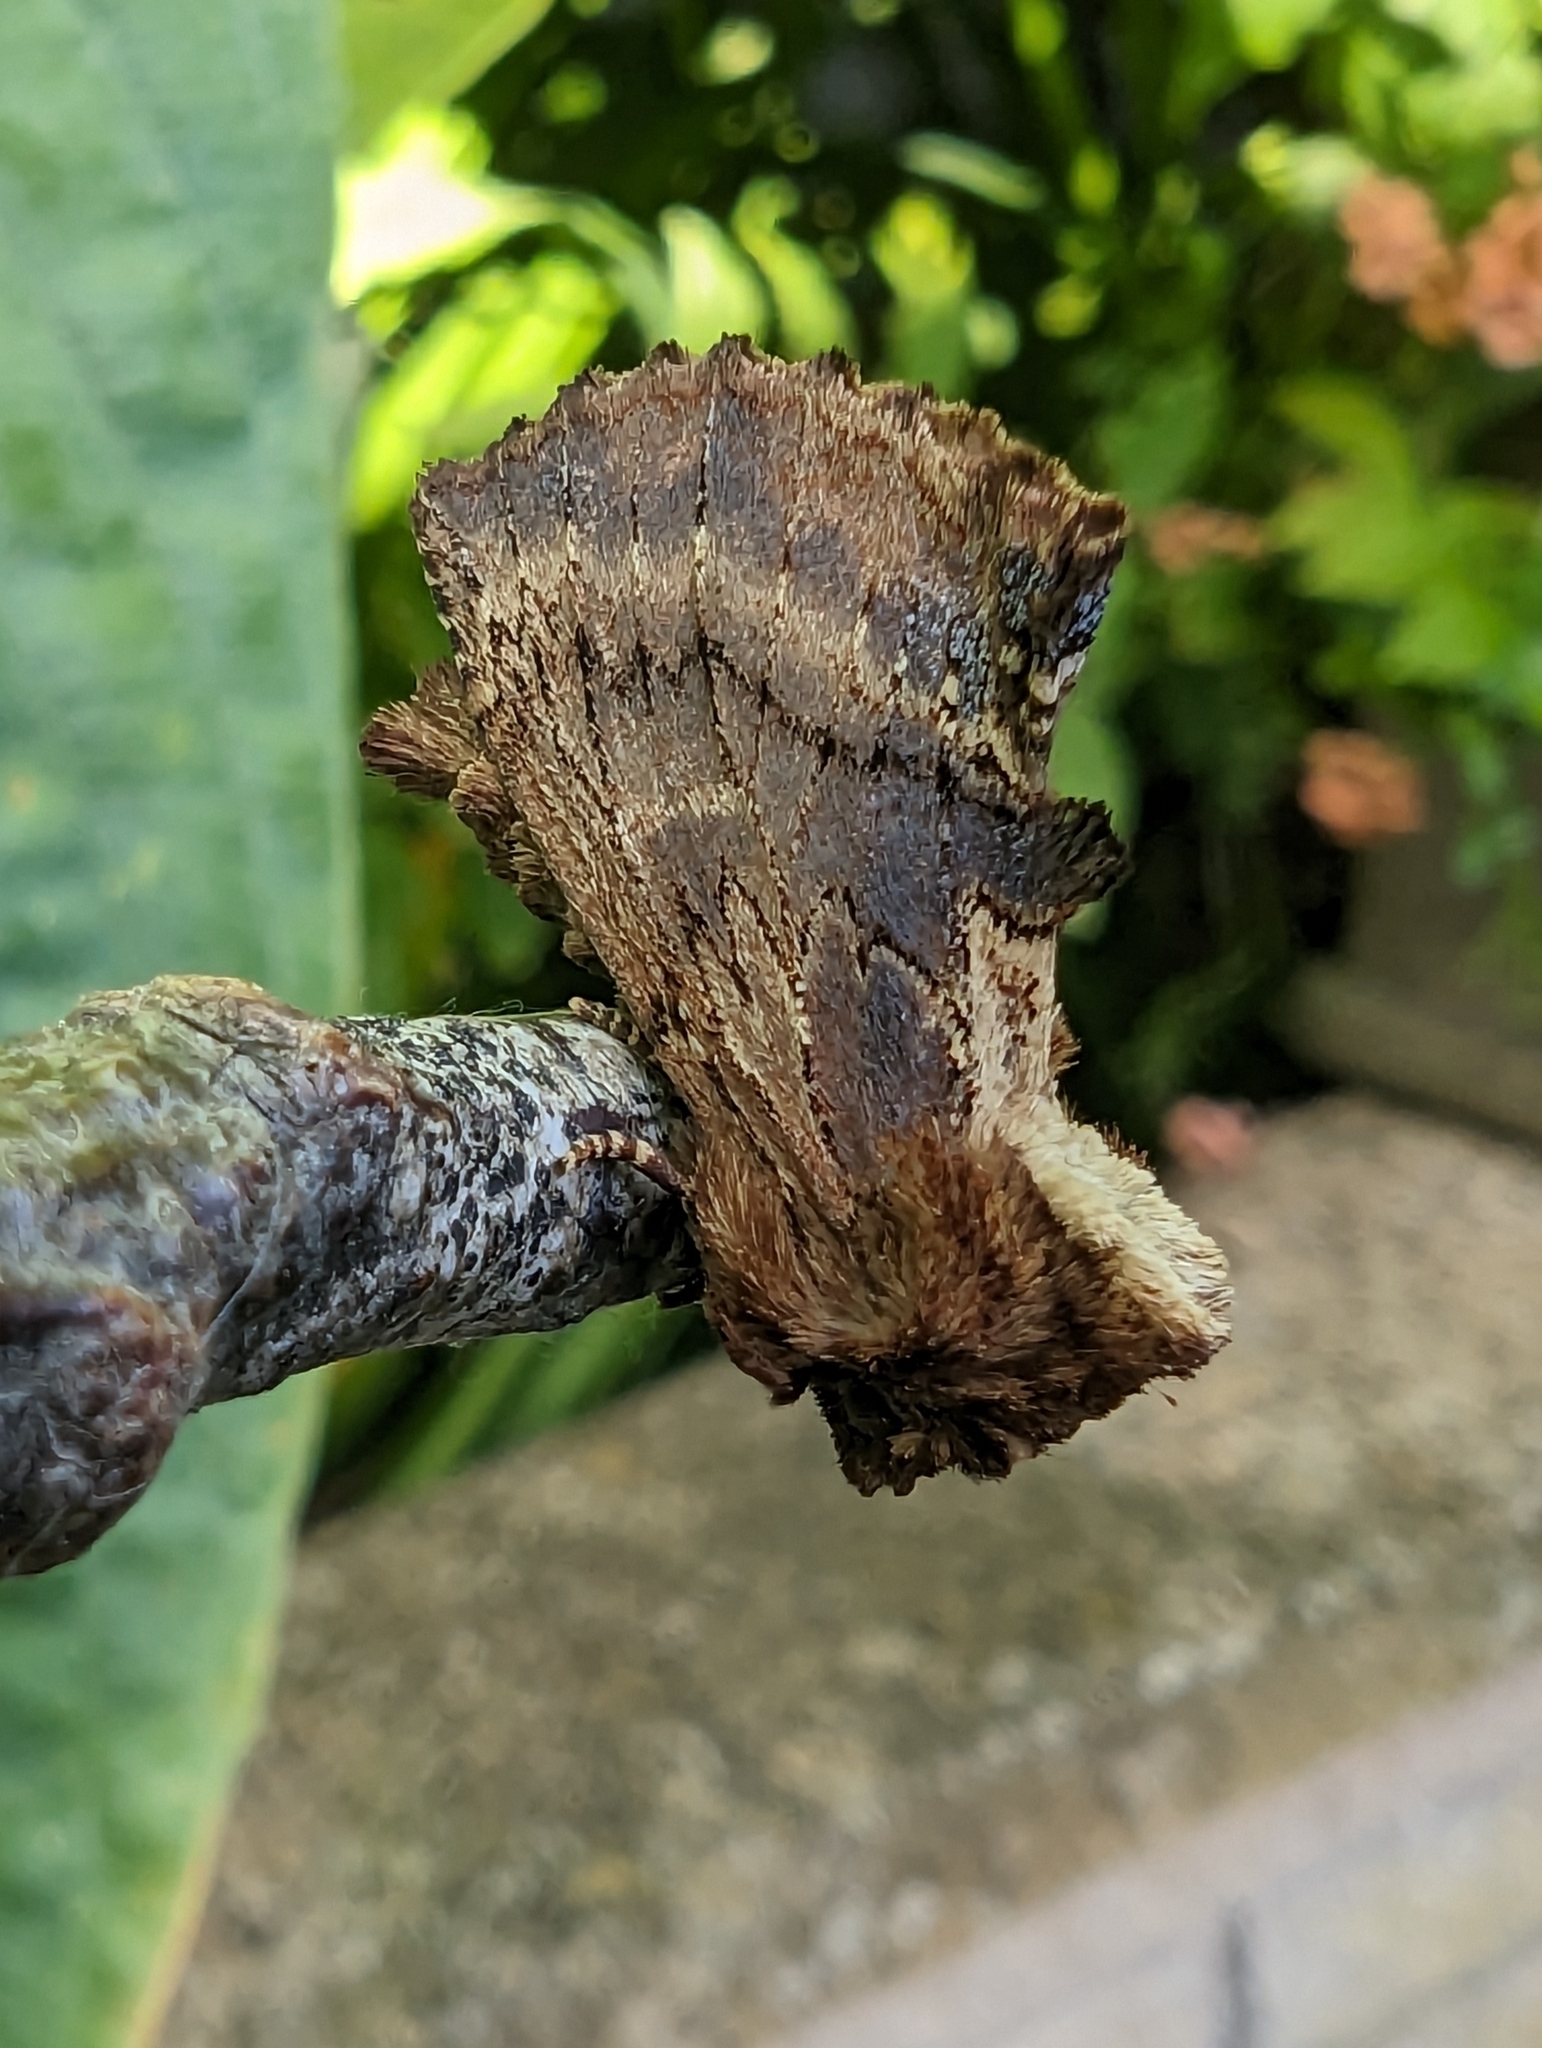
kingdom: Animalia
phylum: Arthropoda
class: Insecta
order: Lepidoptera
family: Notodontidae
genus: Ptilodon
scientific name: Ptilodon capucina
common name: Coxcomb prominent
